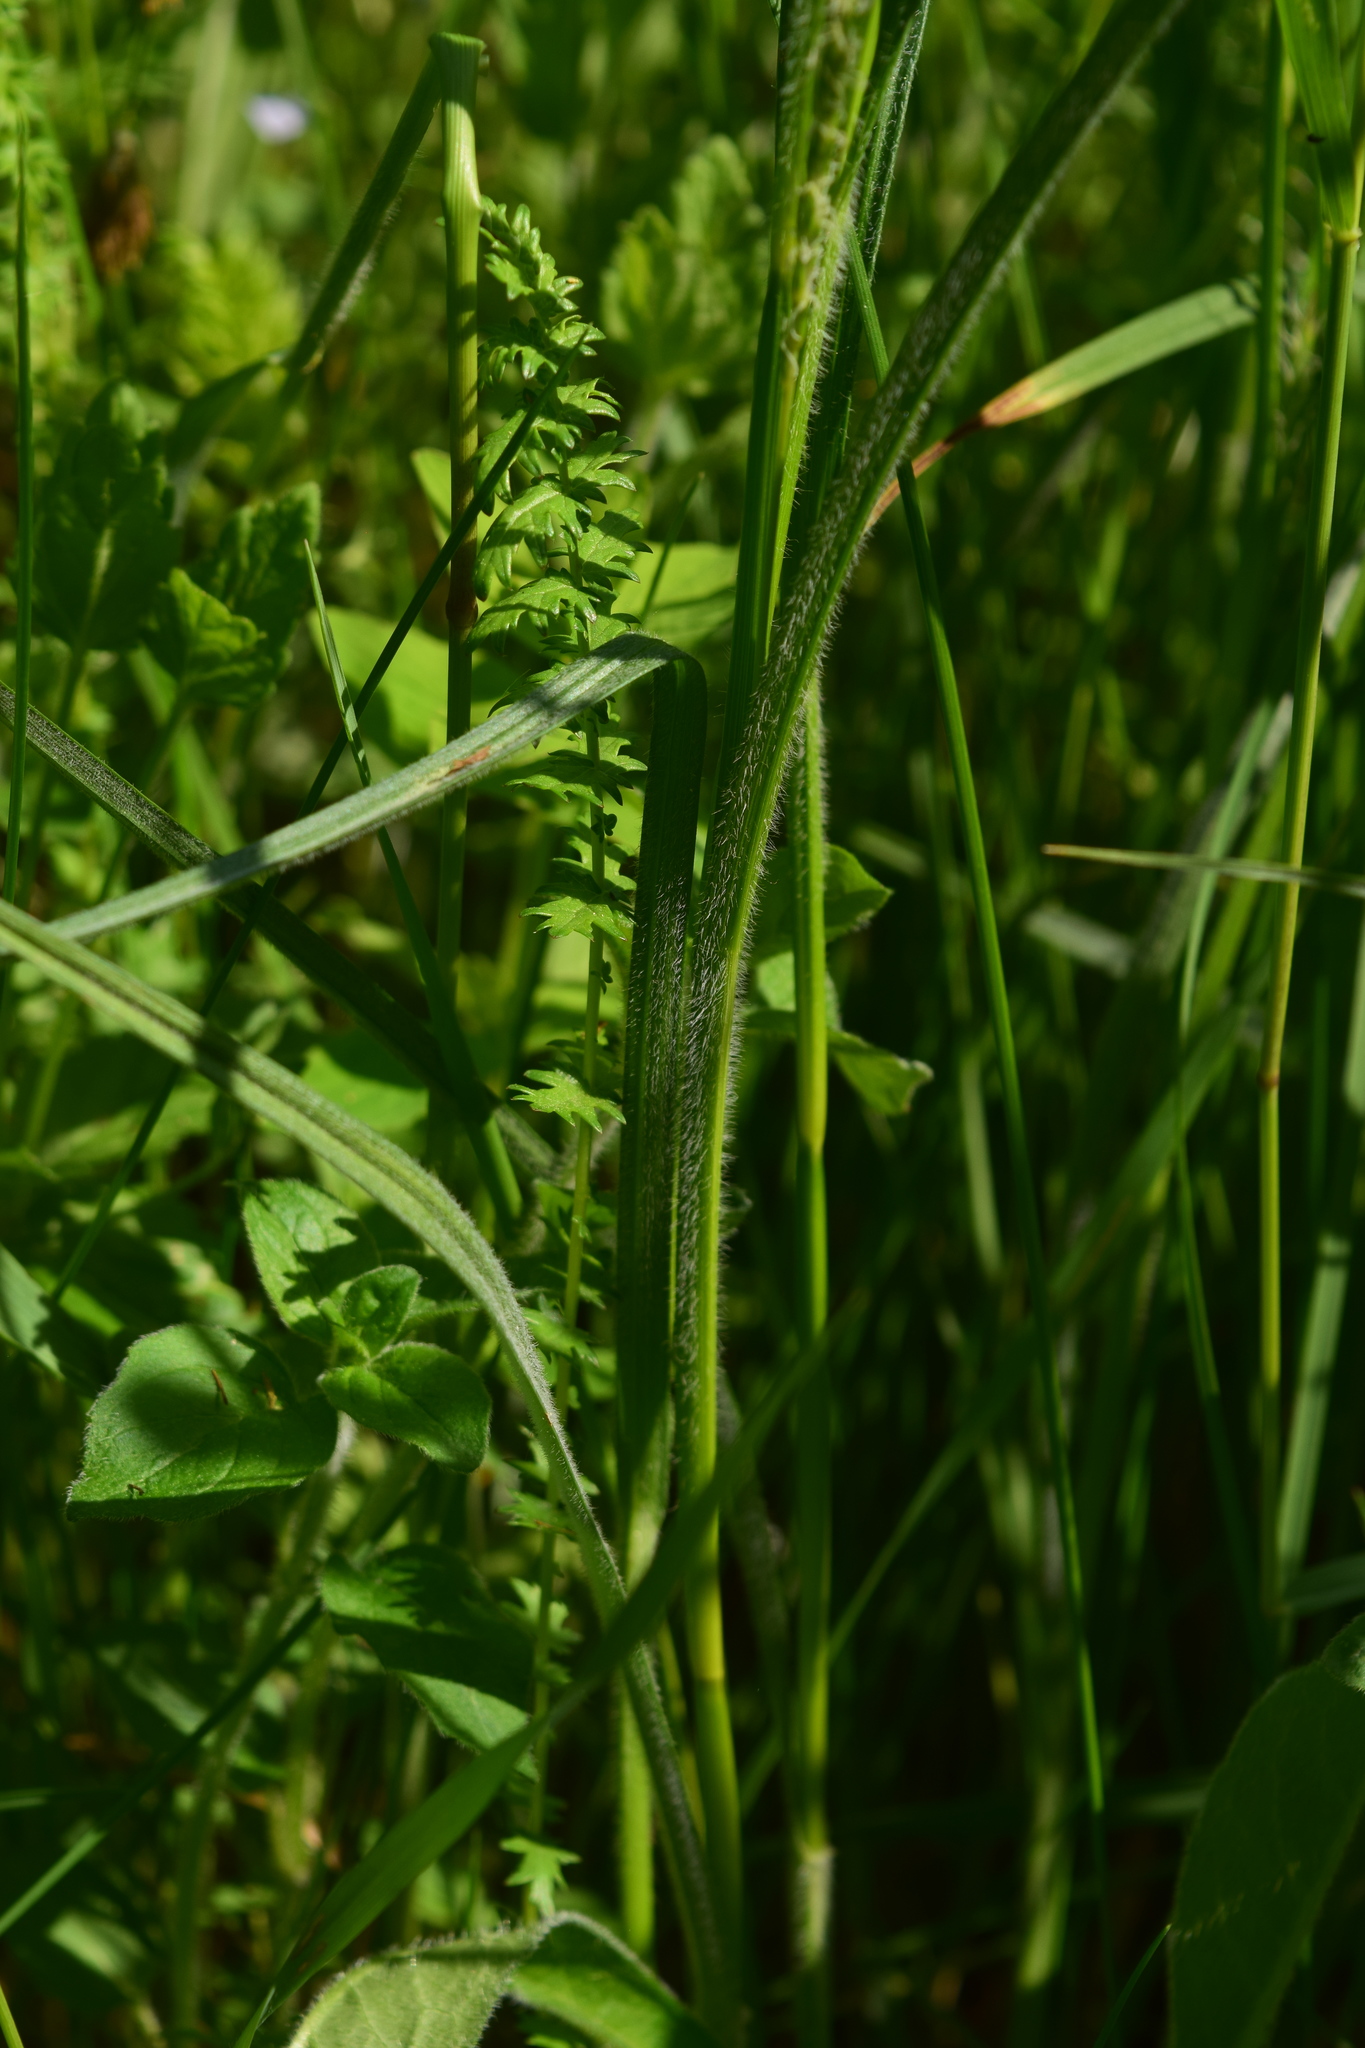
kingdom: Plantae
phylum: Tracheophyta
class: Liliopsida
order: Poales
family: Cyperaceae
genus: Carex
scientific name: Carex hirta
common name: Hairy sedge
